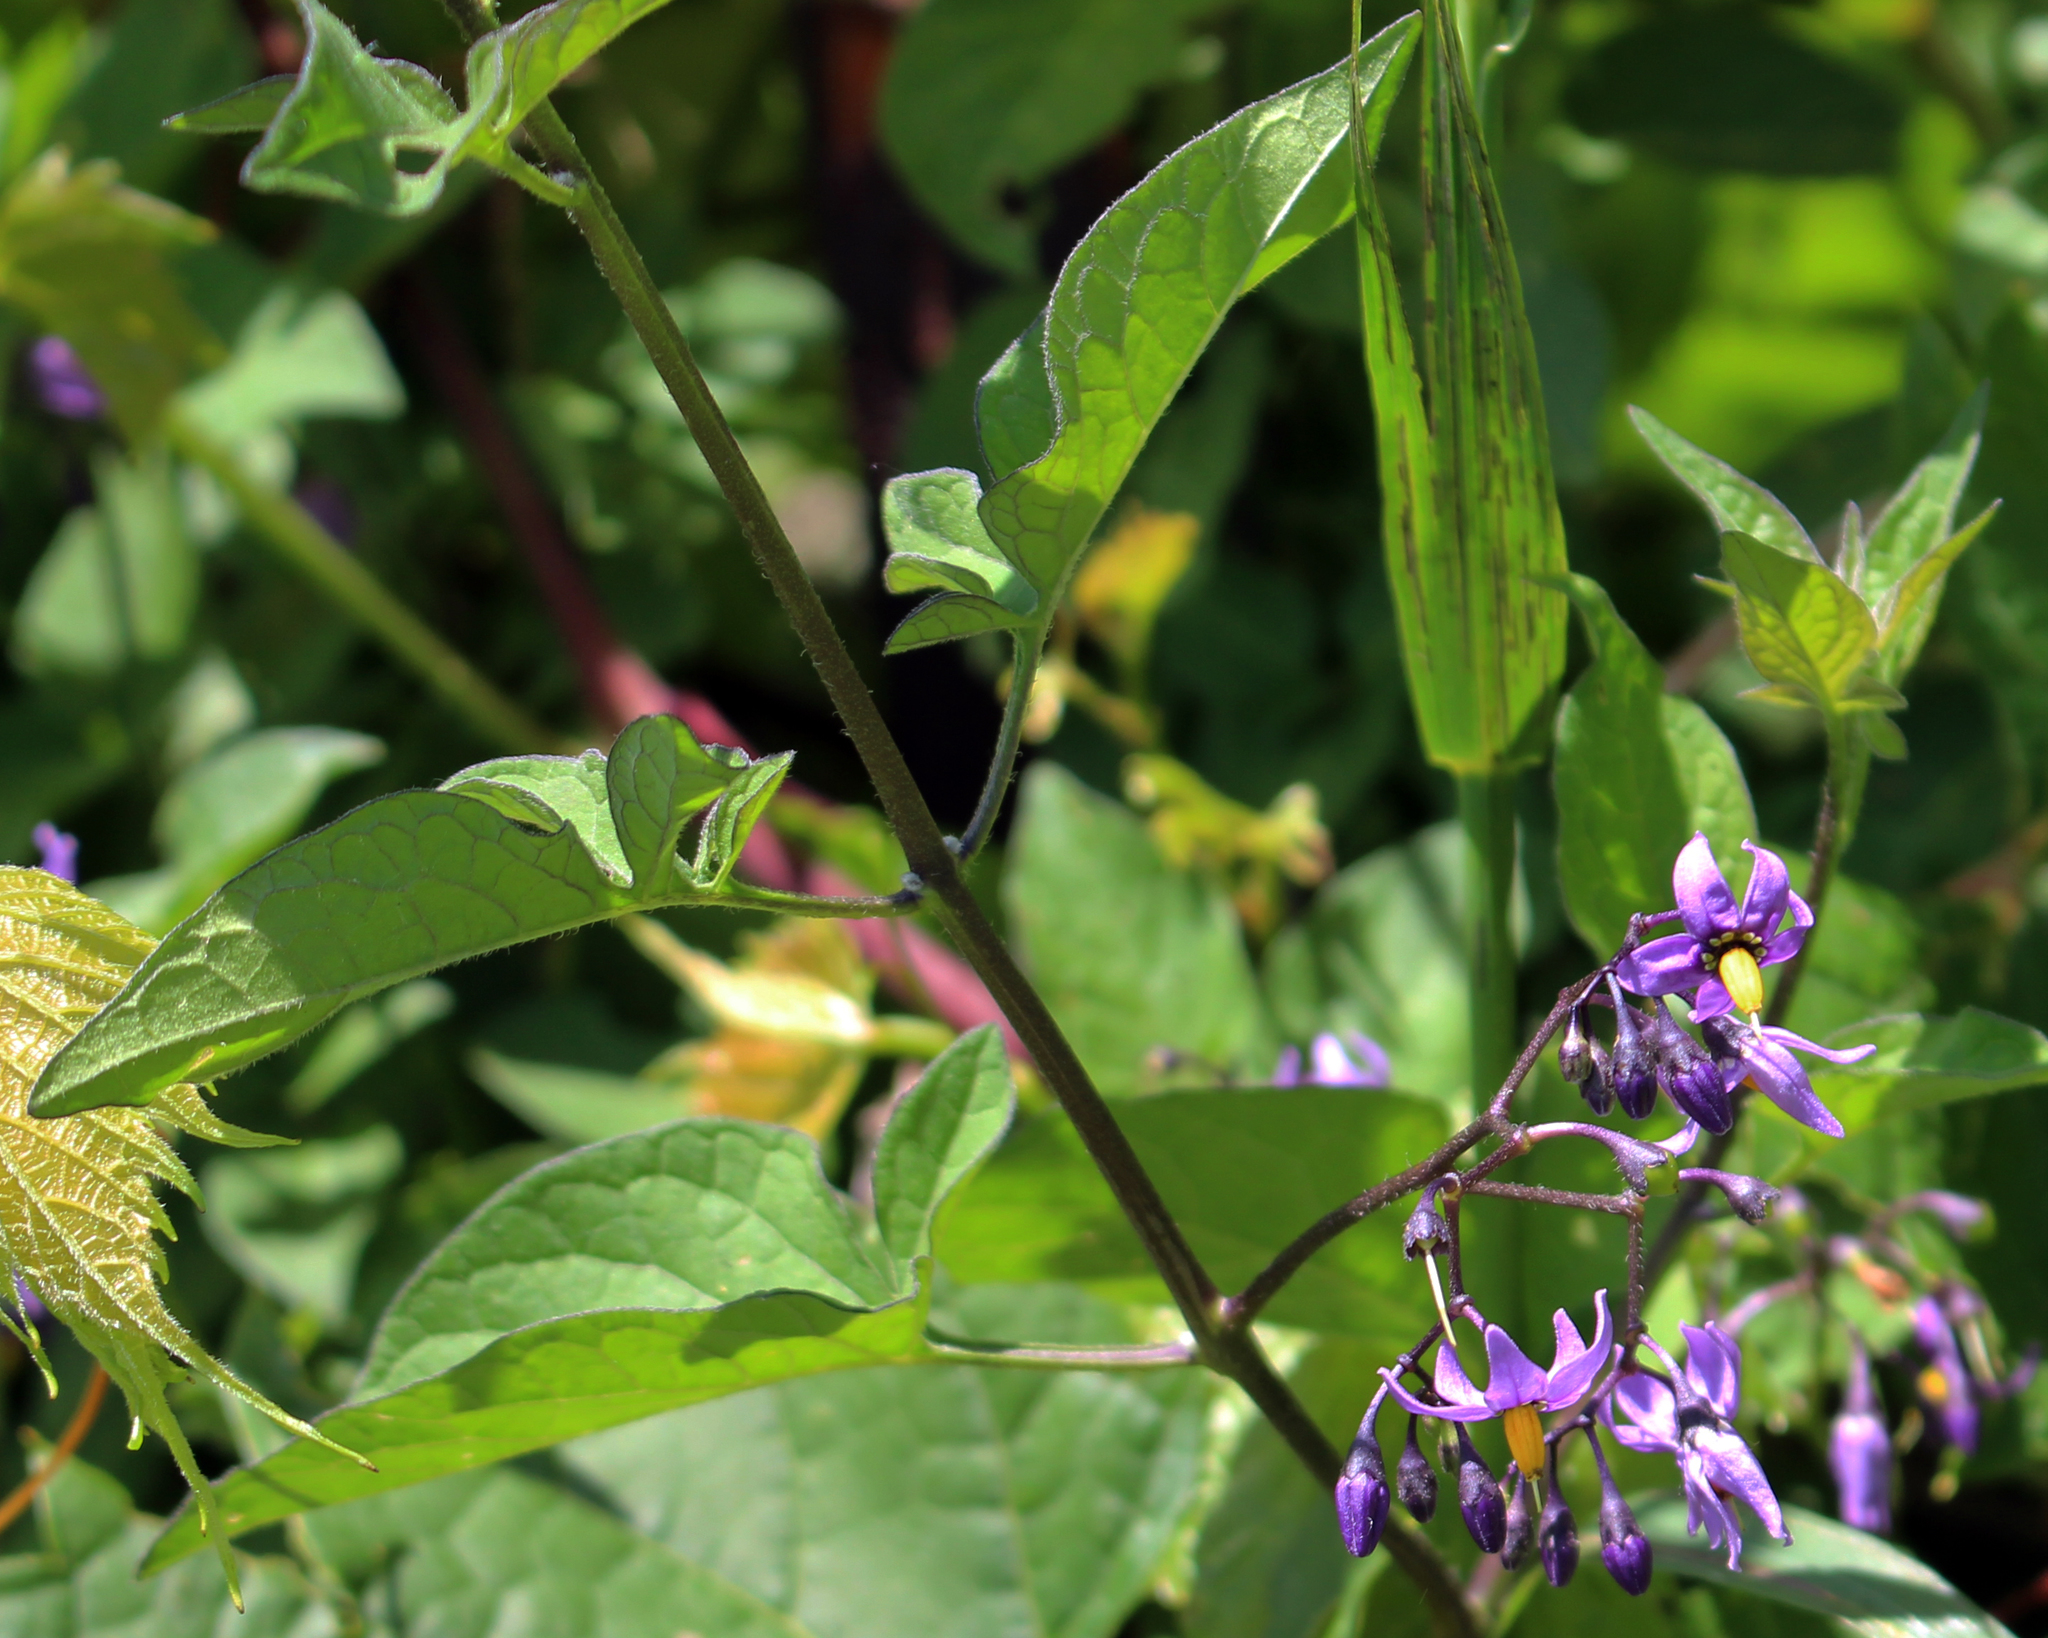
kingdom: Plantae
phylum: Tracheophyta
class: Magnoliopsida
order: Solanales
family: Solanaceae
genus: Solanum
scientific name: Solanum dulcamara
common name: Climbing nightshade
